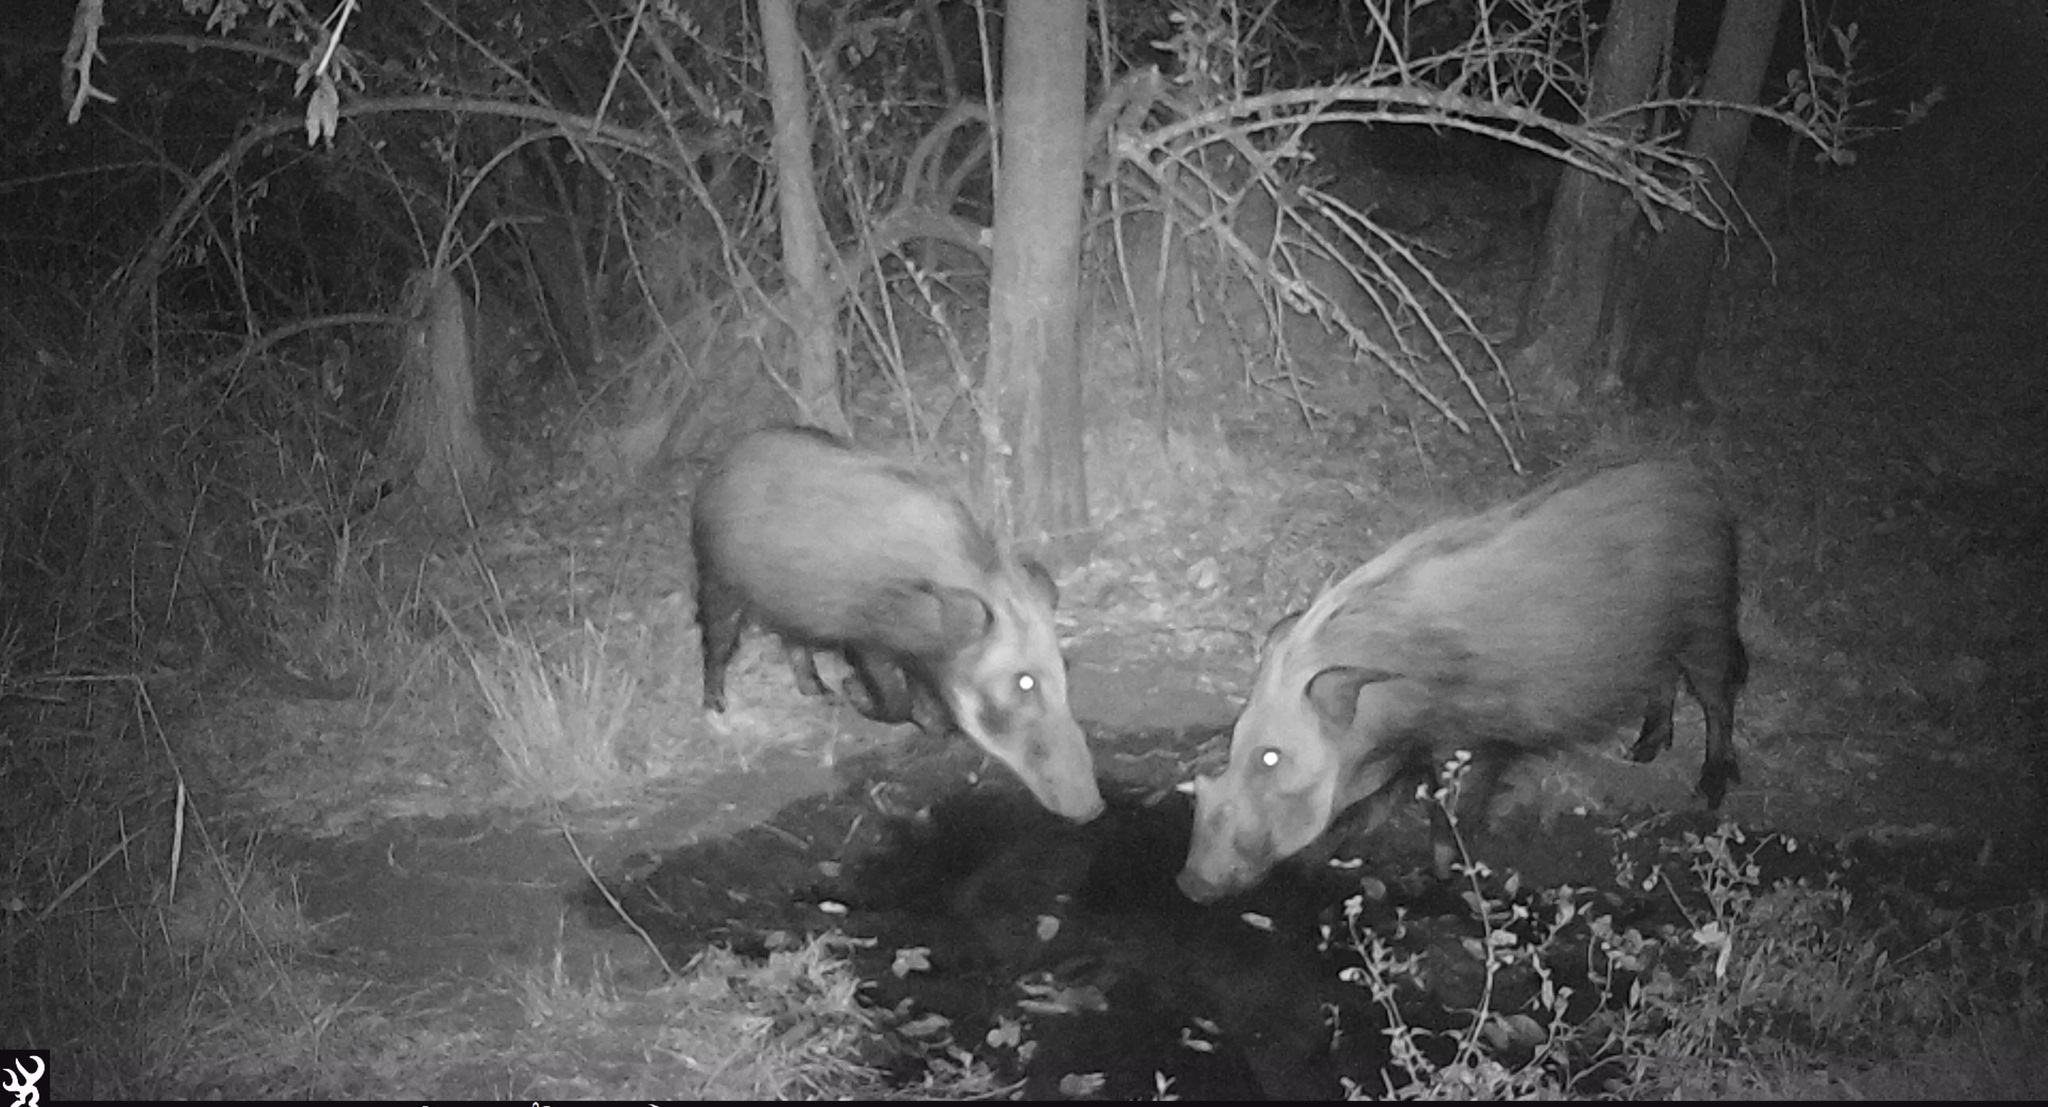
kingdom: Animalia
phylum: Chordata
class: Mammalia
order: Artiodactyla
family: Suidae
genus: Potamochoerus
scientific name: Potamochoerus larvatus
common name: Bushpig
